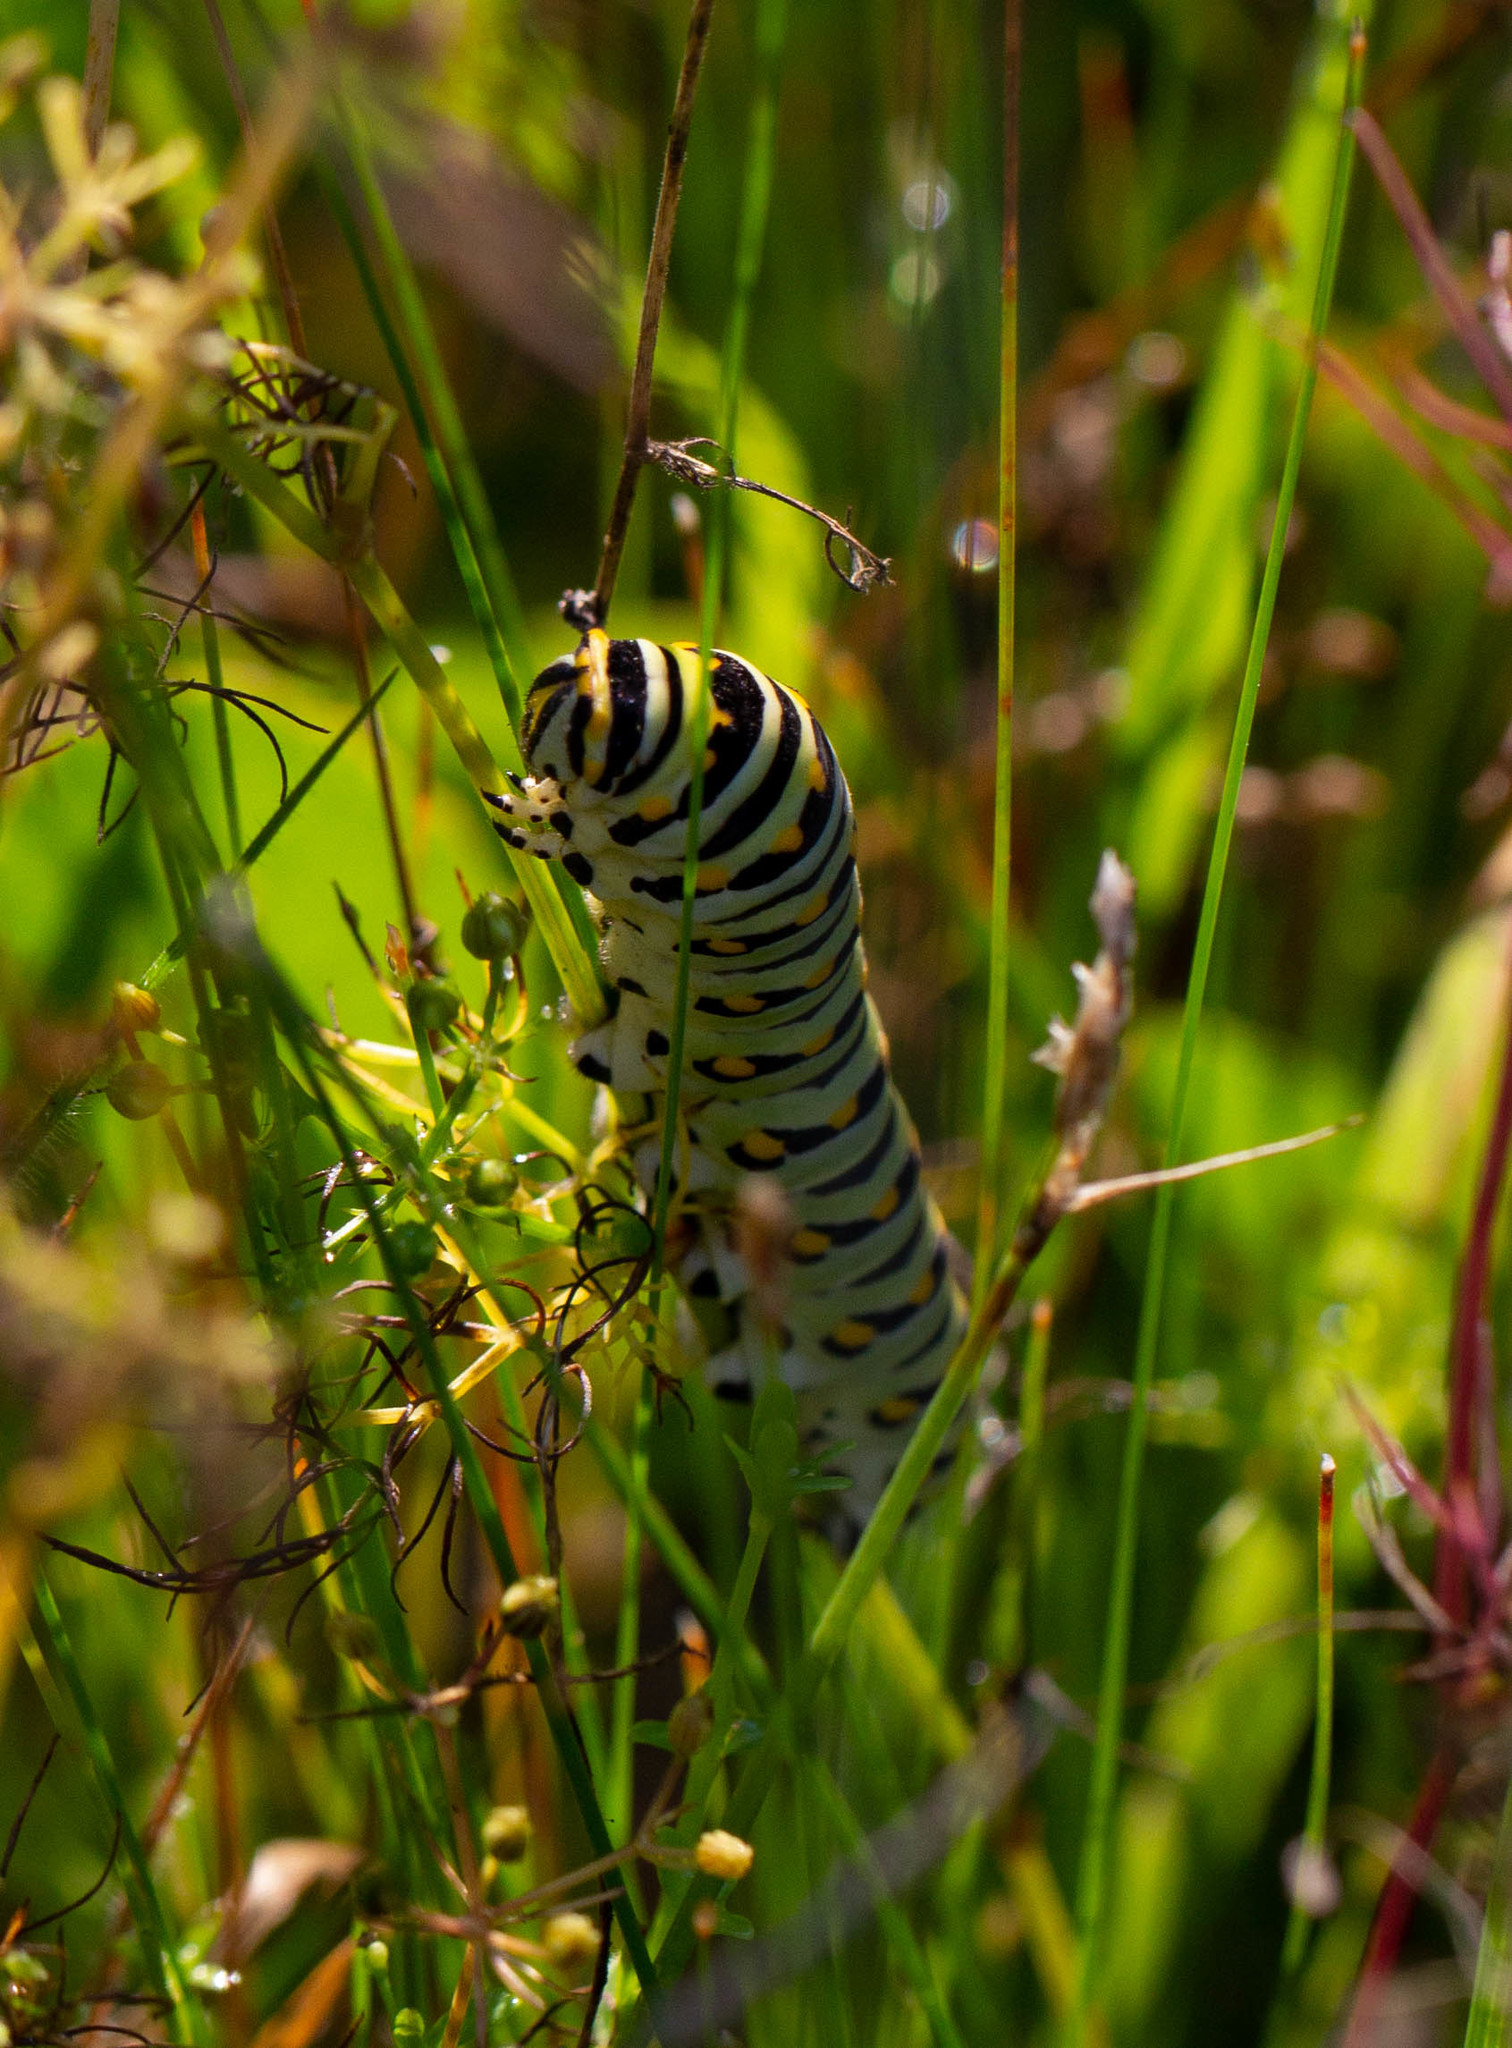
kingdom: Animalia
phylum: Arthropoda
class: Insecta
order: Lepidoptera
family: Papilionidae
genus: Papilio
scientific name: Papilio polyxenes
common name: Black swallowtail
